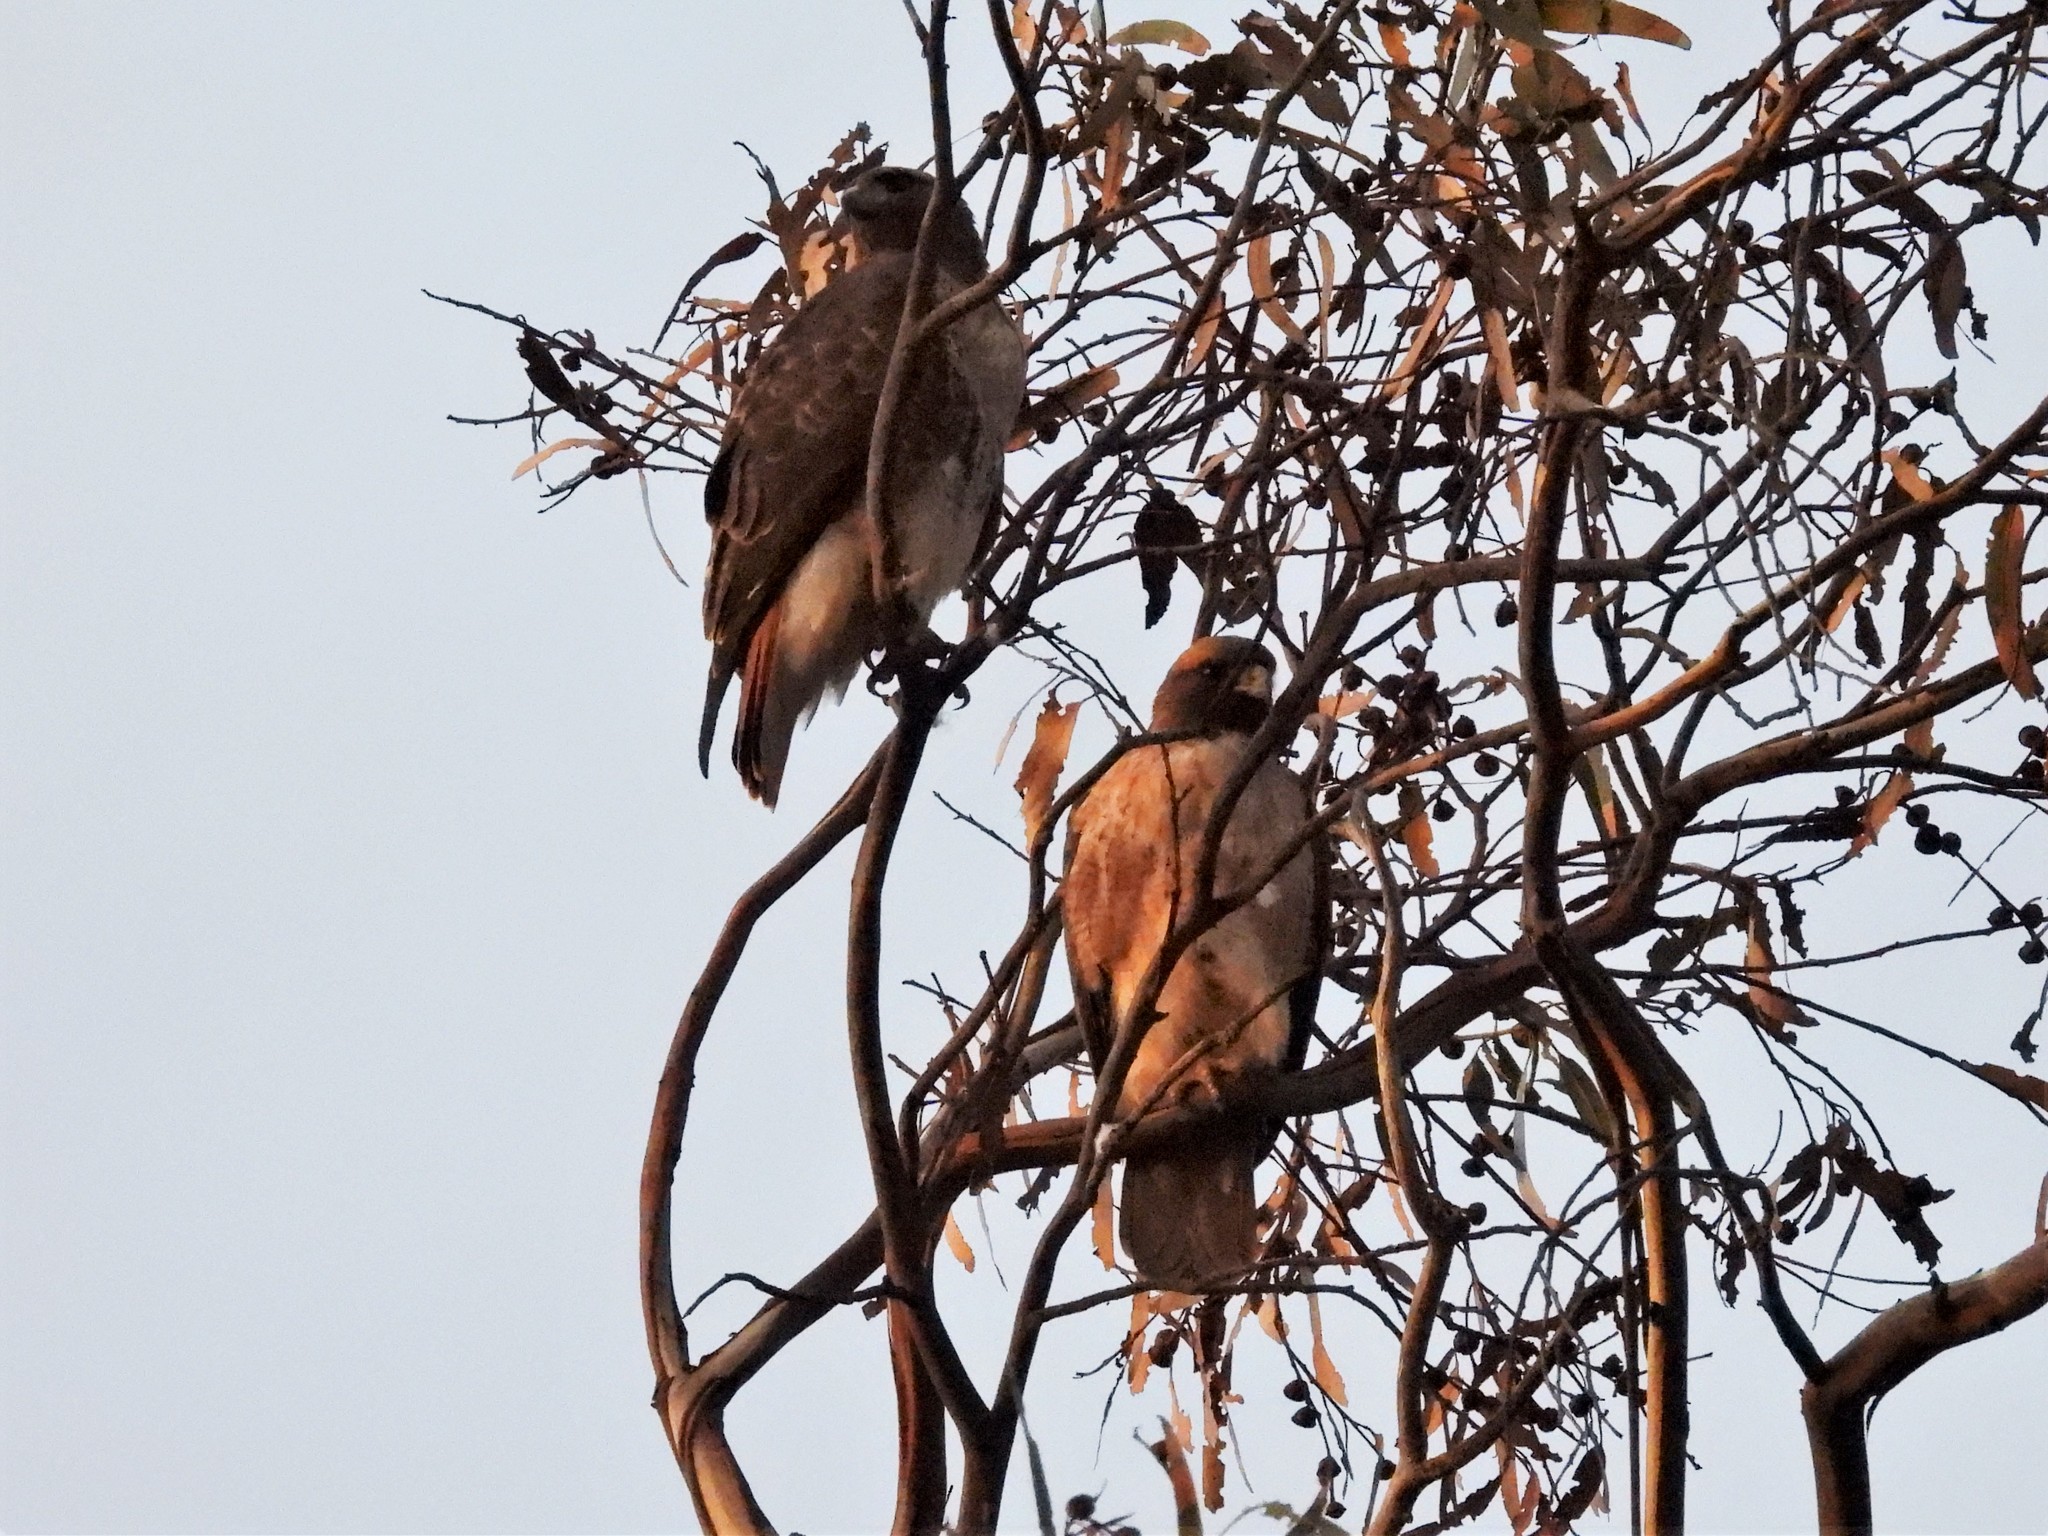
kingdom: Animalia
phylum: Chordata
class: Aves
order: Accipitriformes
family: Accipitridae
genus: Buteo
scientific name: Buteo jamaicensis
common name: Red-tailed hawk
